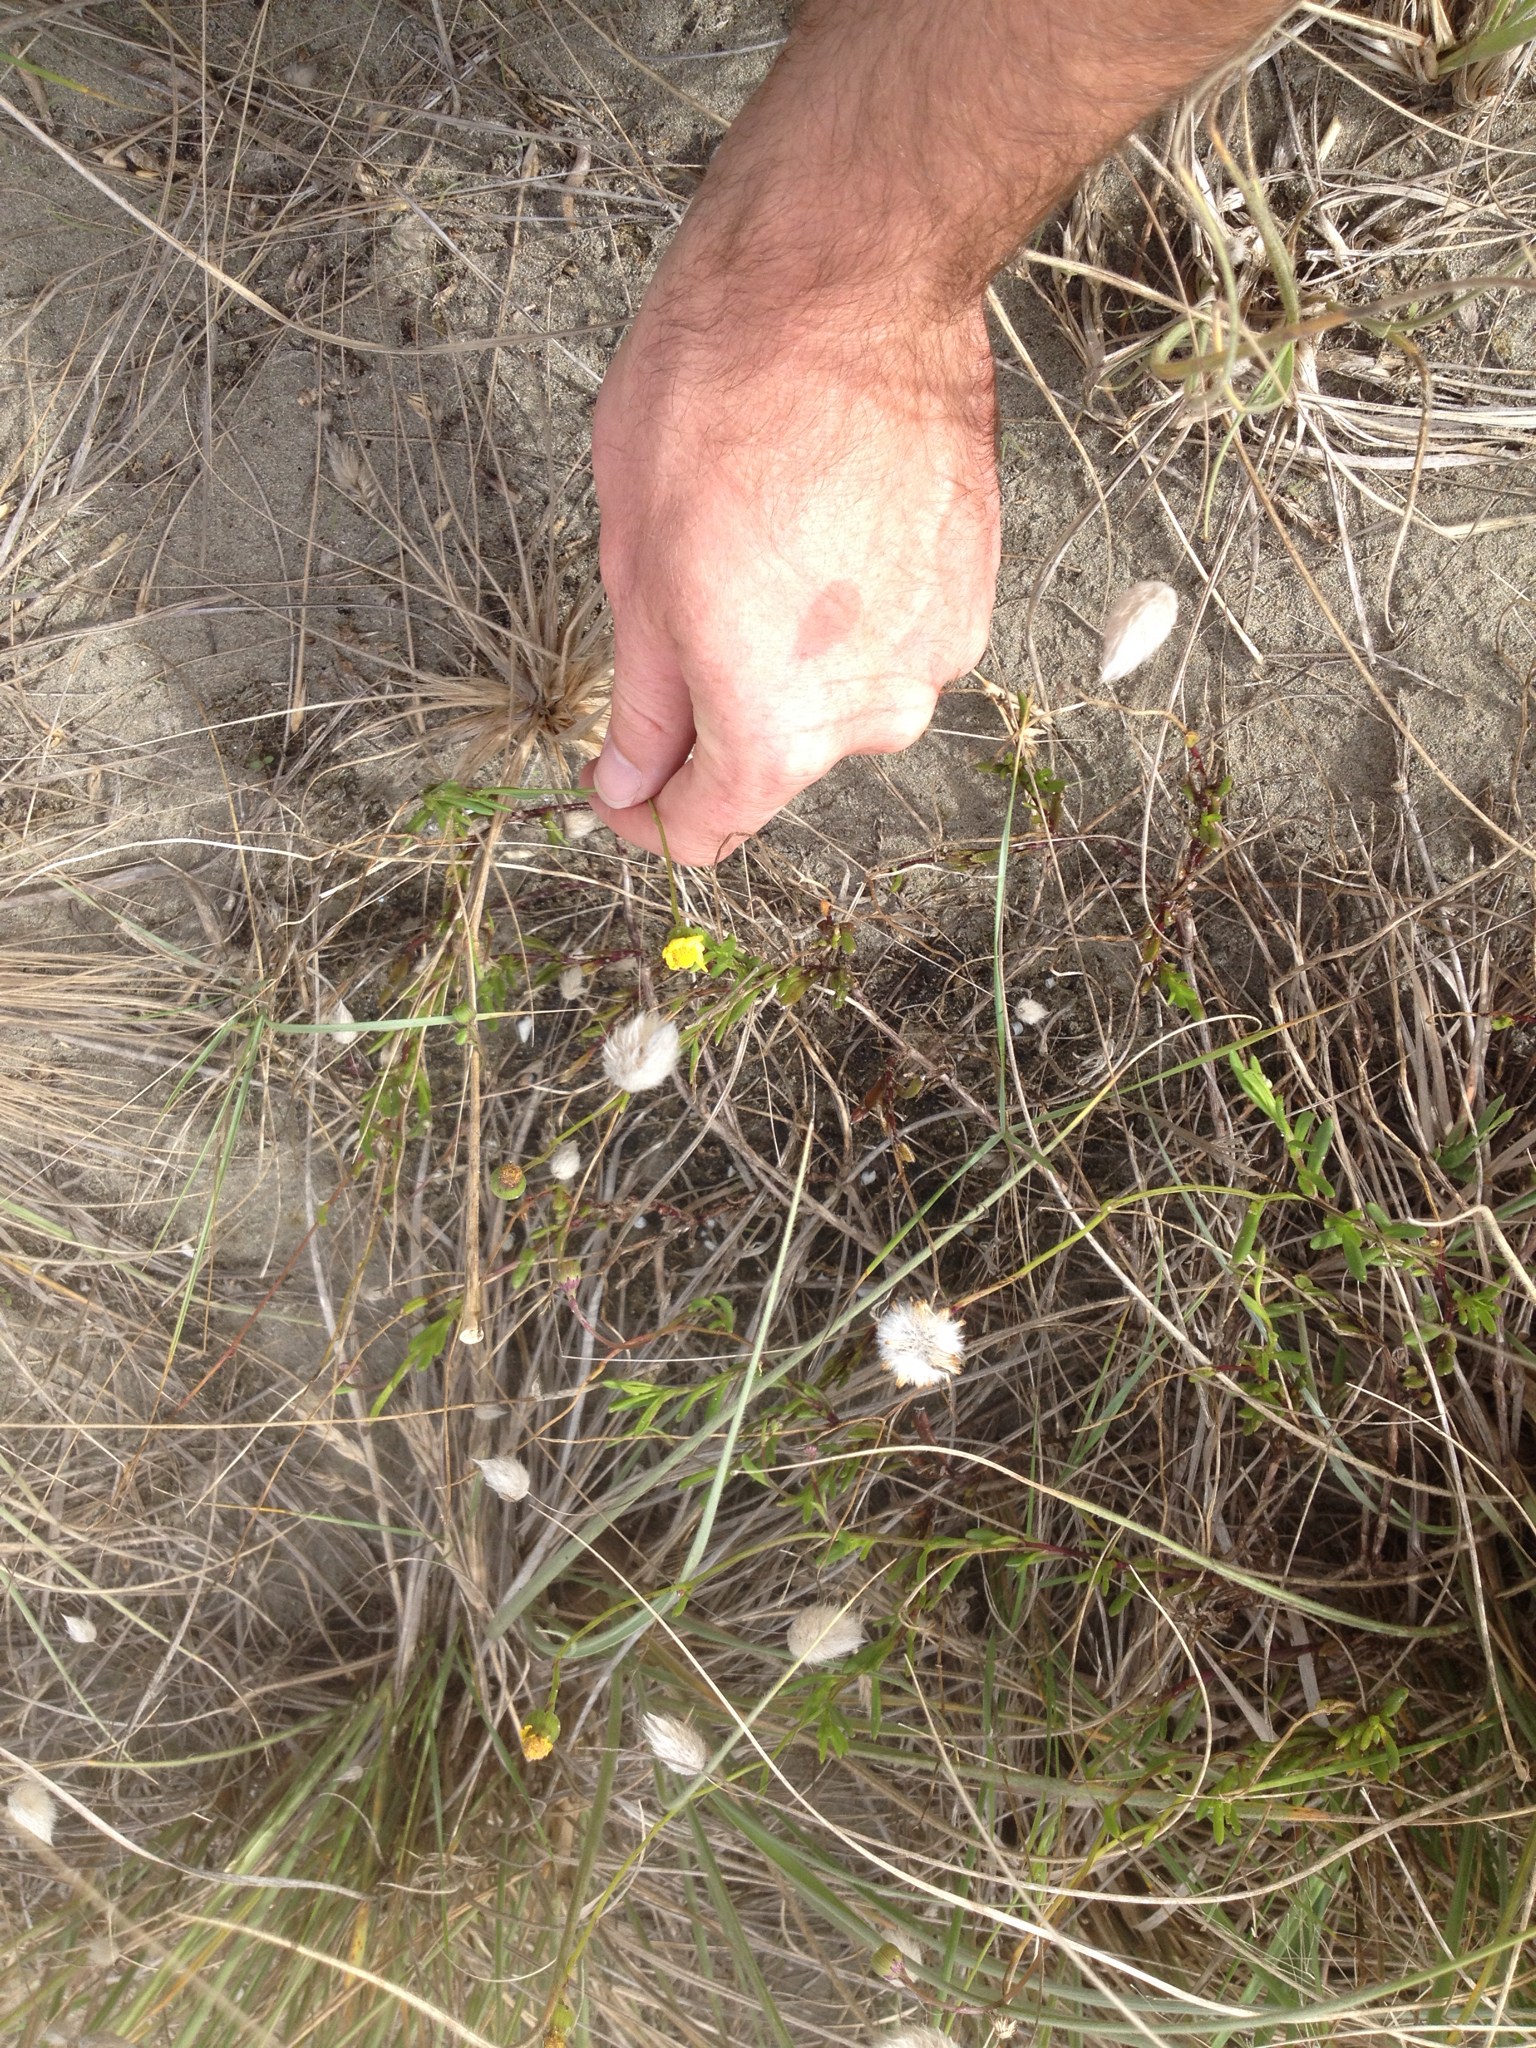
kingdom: Plantae
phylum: Tracheophyta
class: Magnoliopsida
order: Asterales
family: Asteraceae
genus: Senecio
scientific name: Senecio lautus
